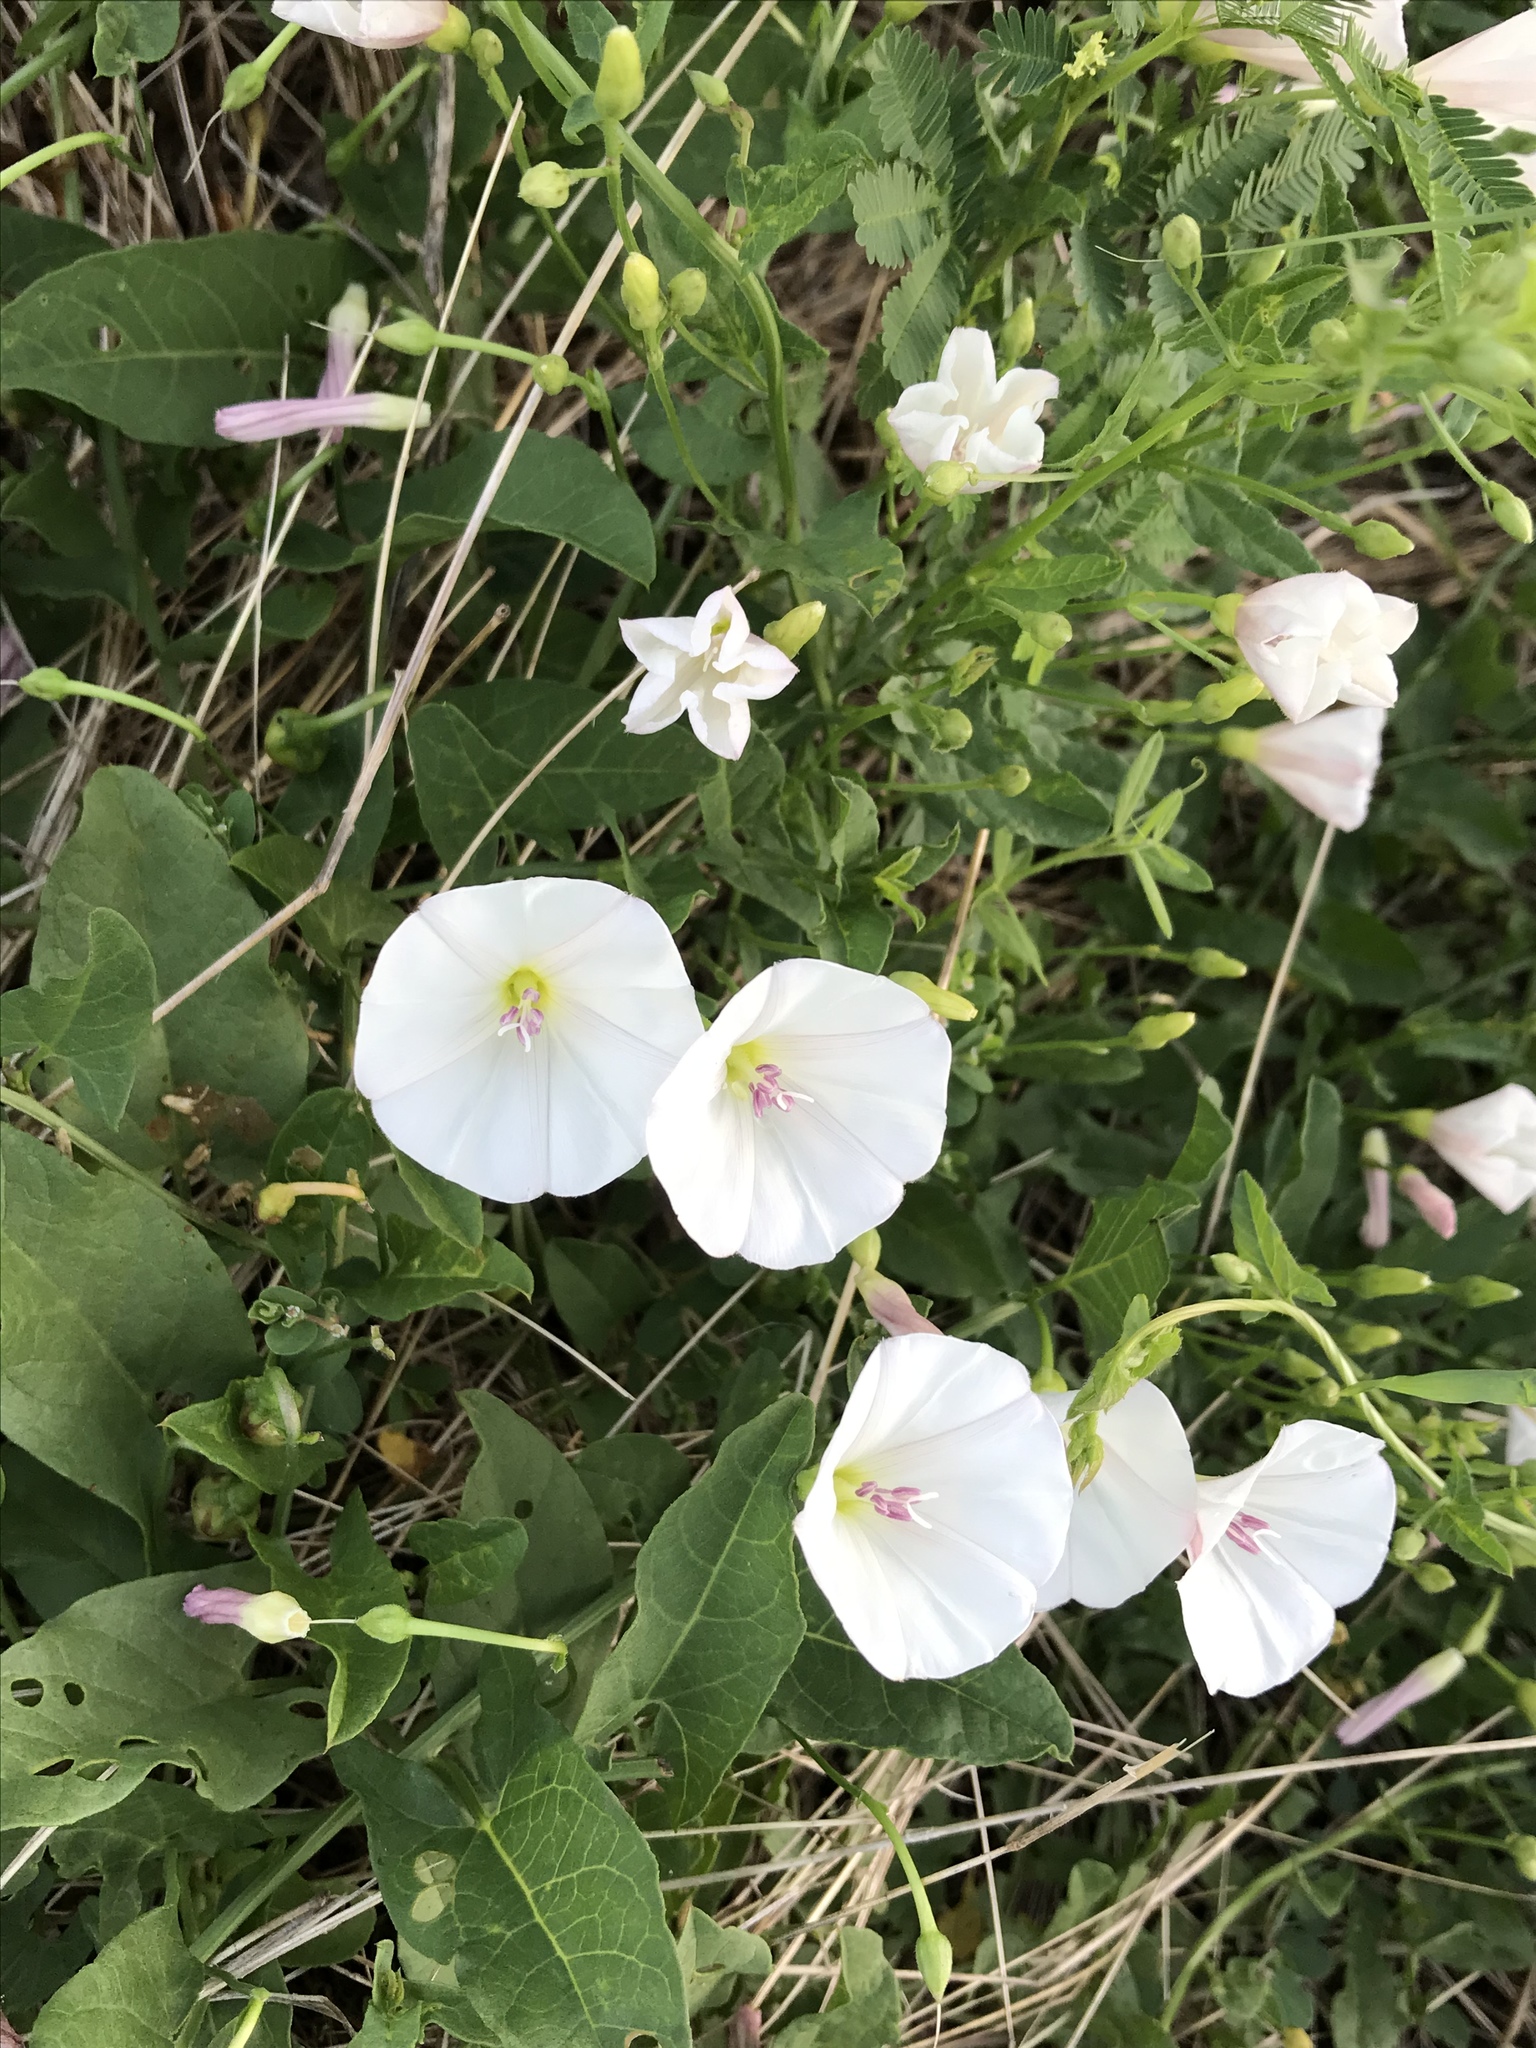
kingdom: Plantae
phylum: Tracheophyta
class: Magnoliopsida
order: Solanales
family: Convolvulaceae
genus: Convolvulus
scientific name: Convolvulus arvensis
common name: Field bindweed
